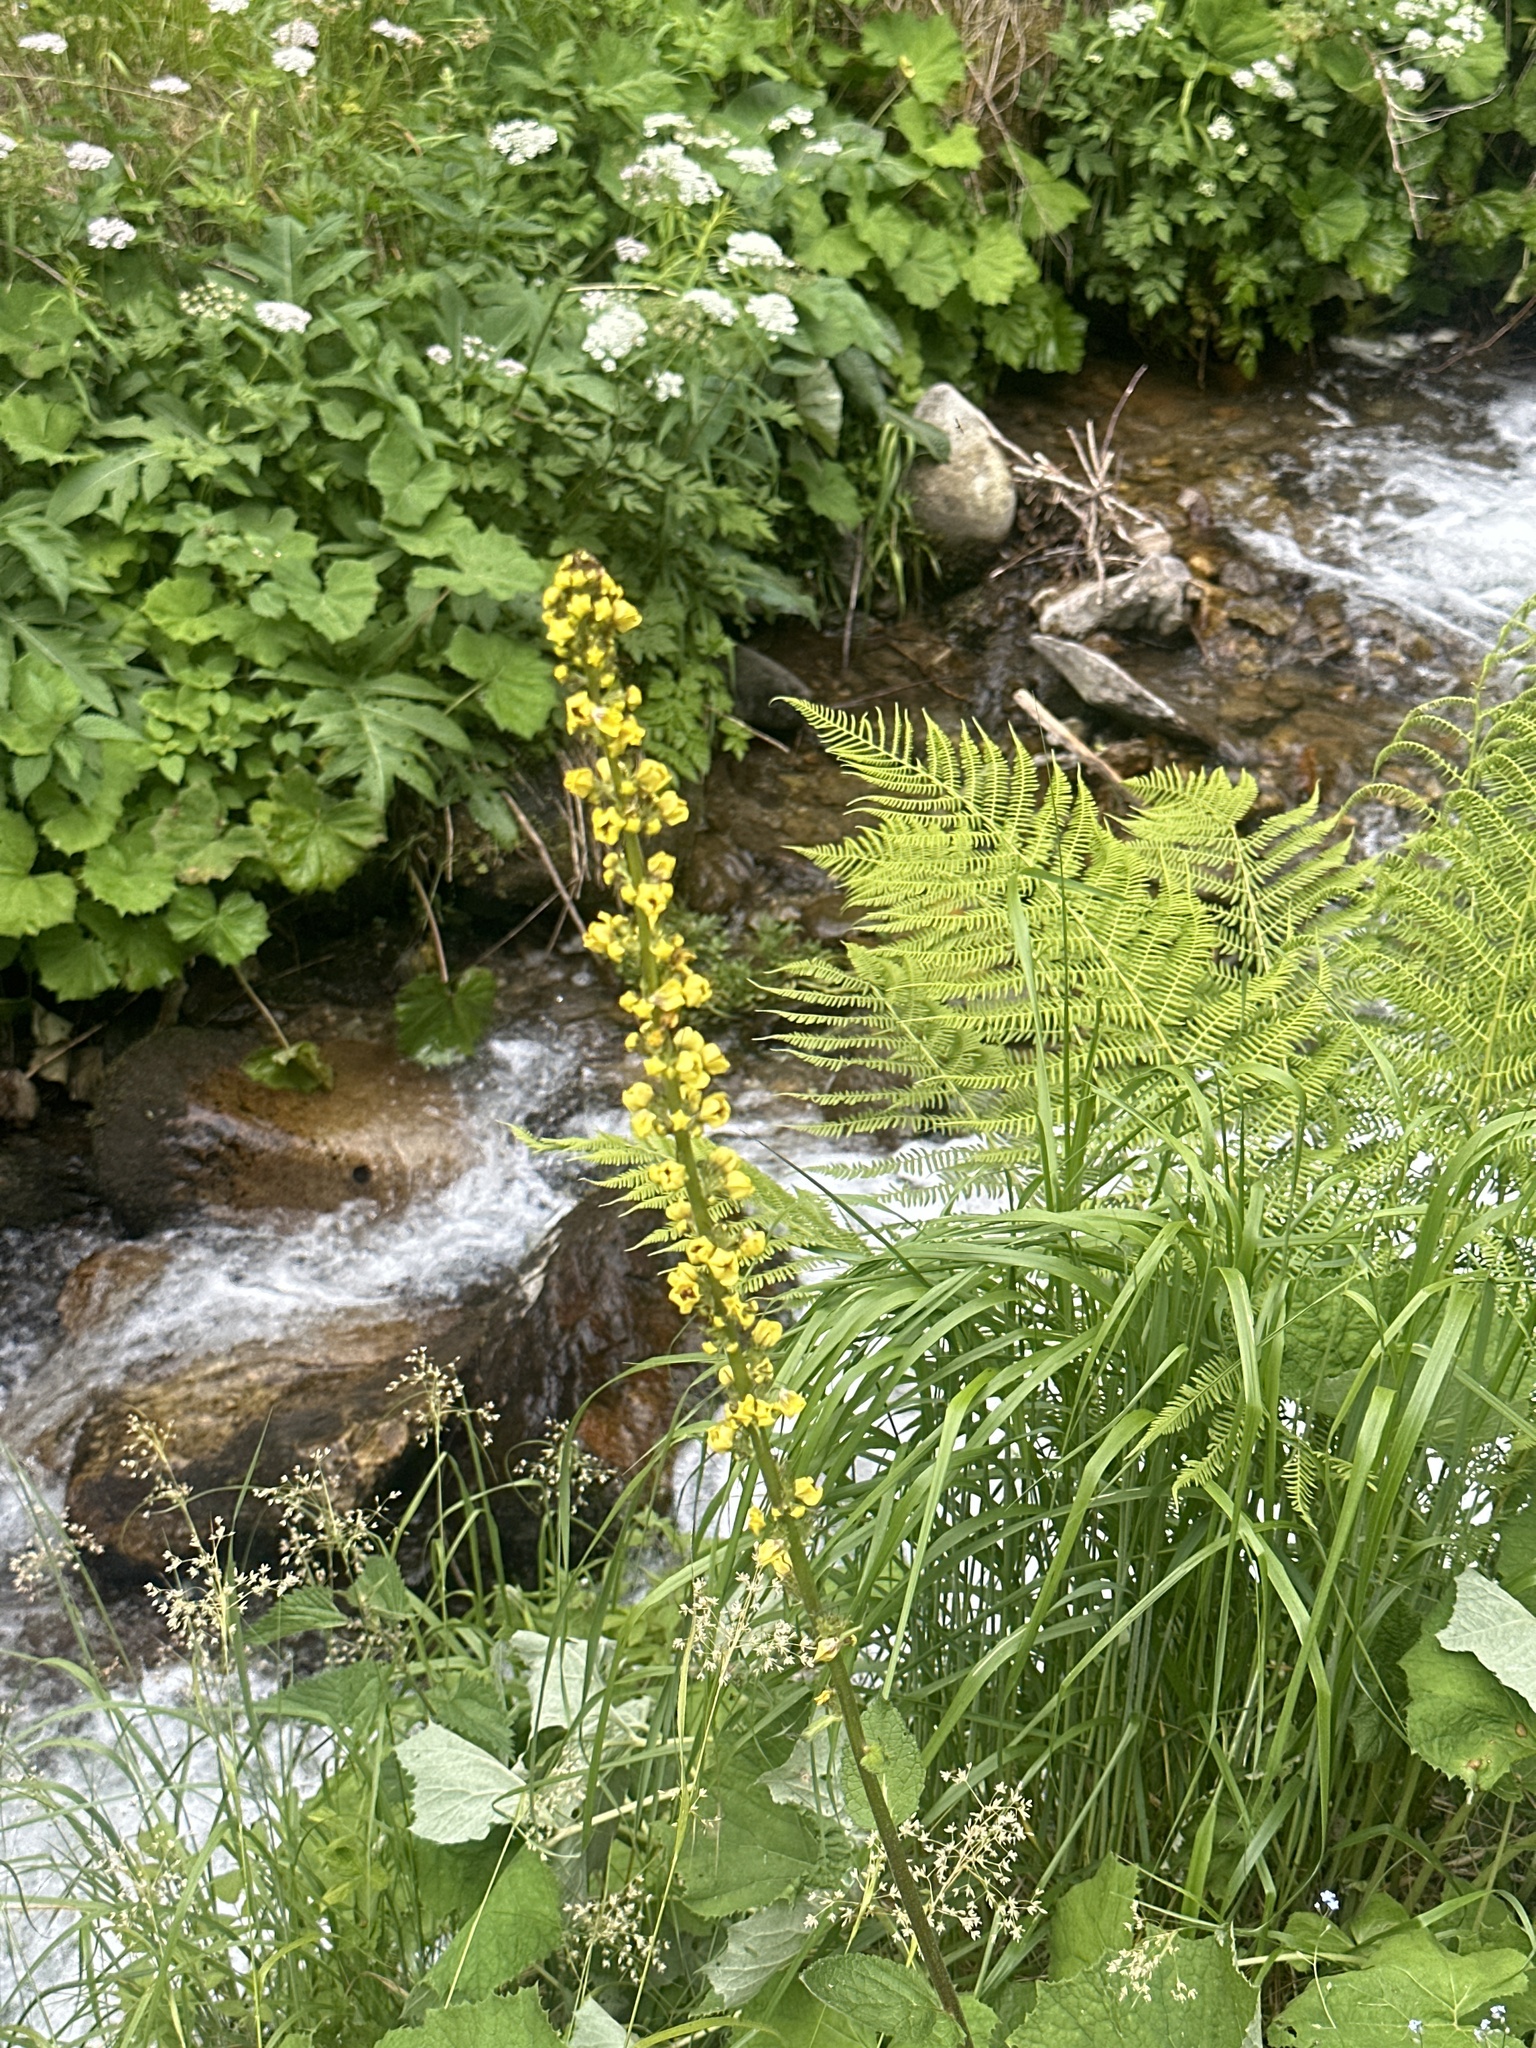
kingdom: Plantae
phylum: Tracheophyta
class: Magnoliopsida
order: Lamiales
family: Scrophulariaceae
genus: Verbascum
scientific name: Verbascum nigrum
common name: Dark mullein
